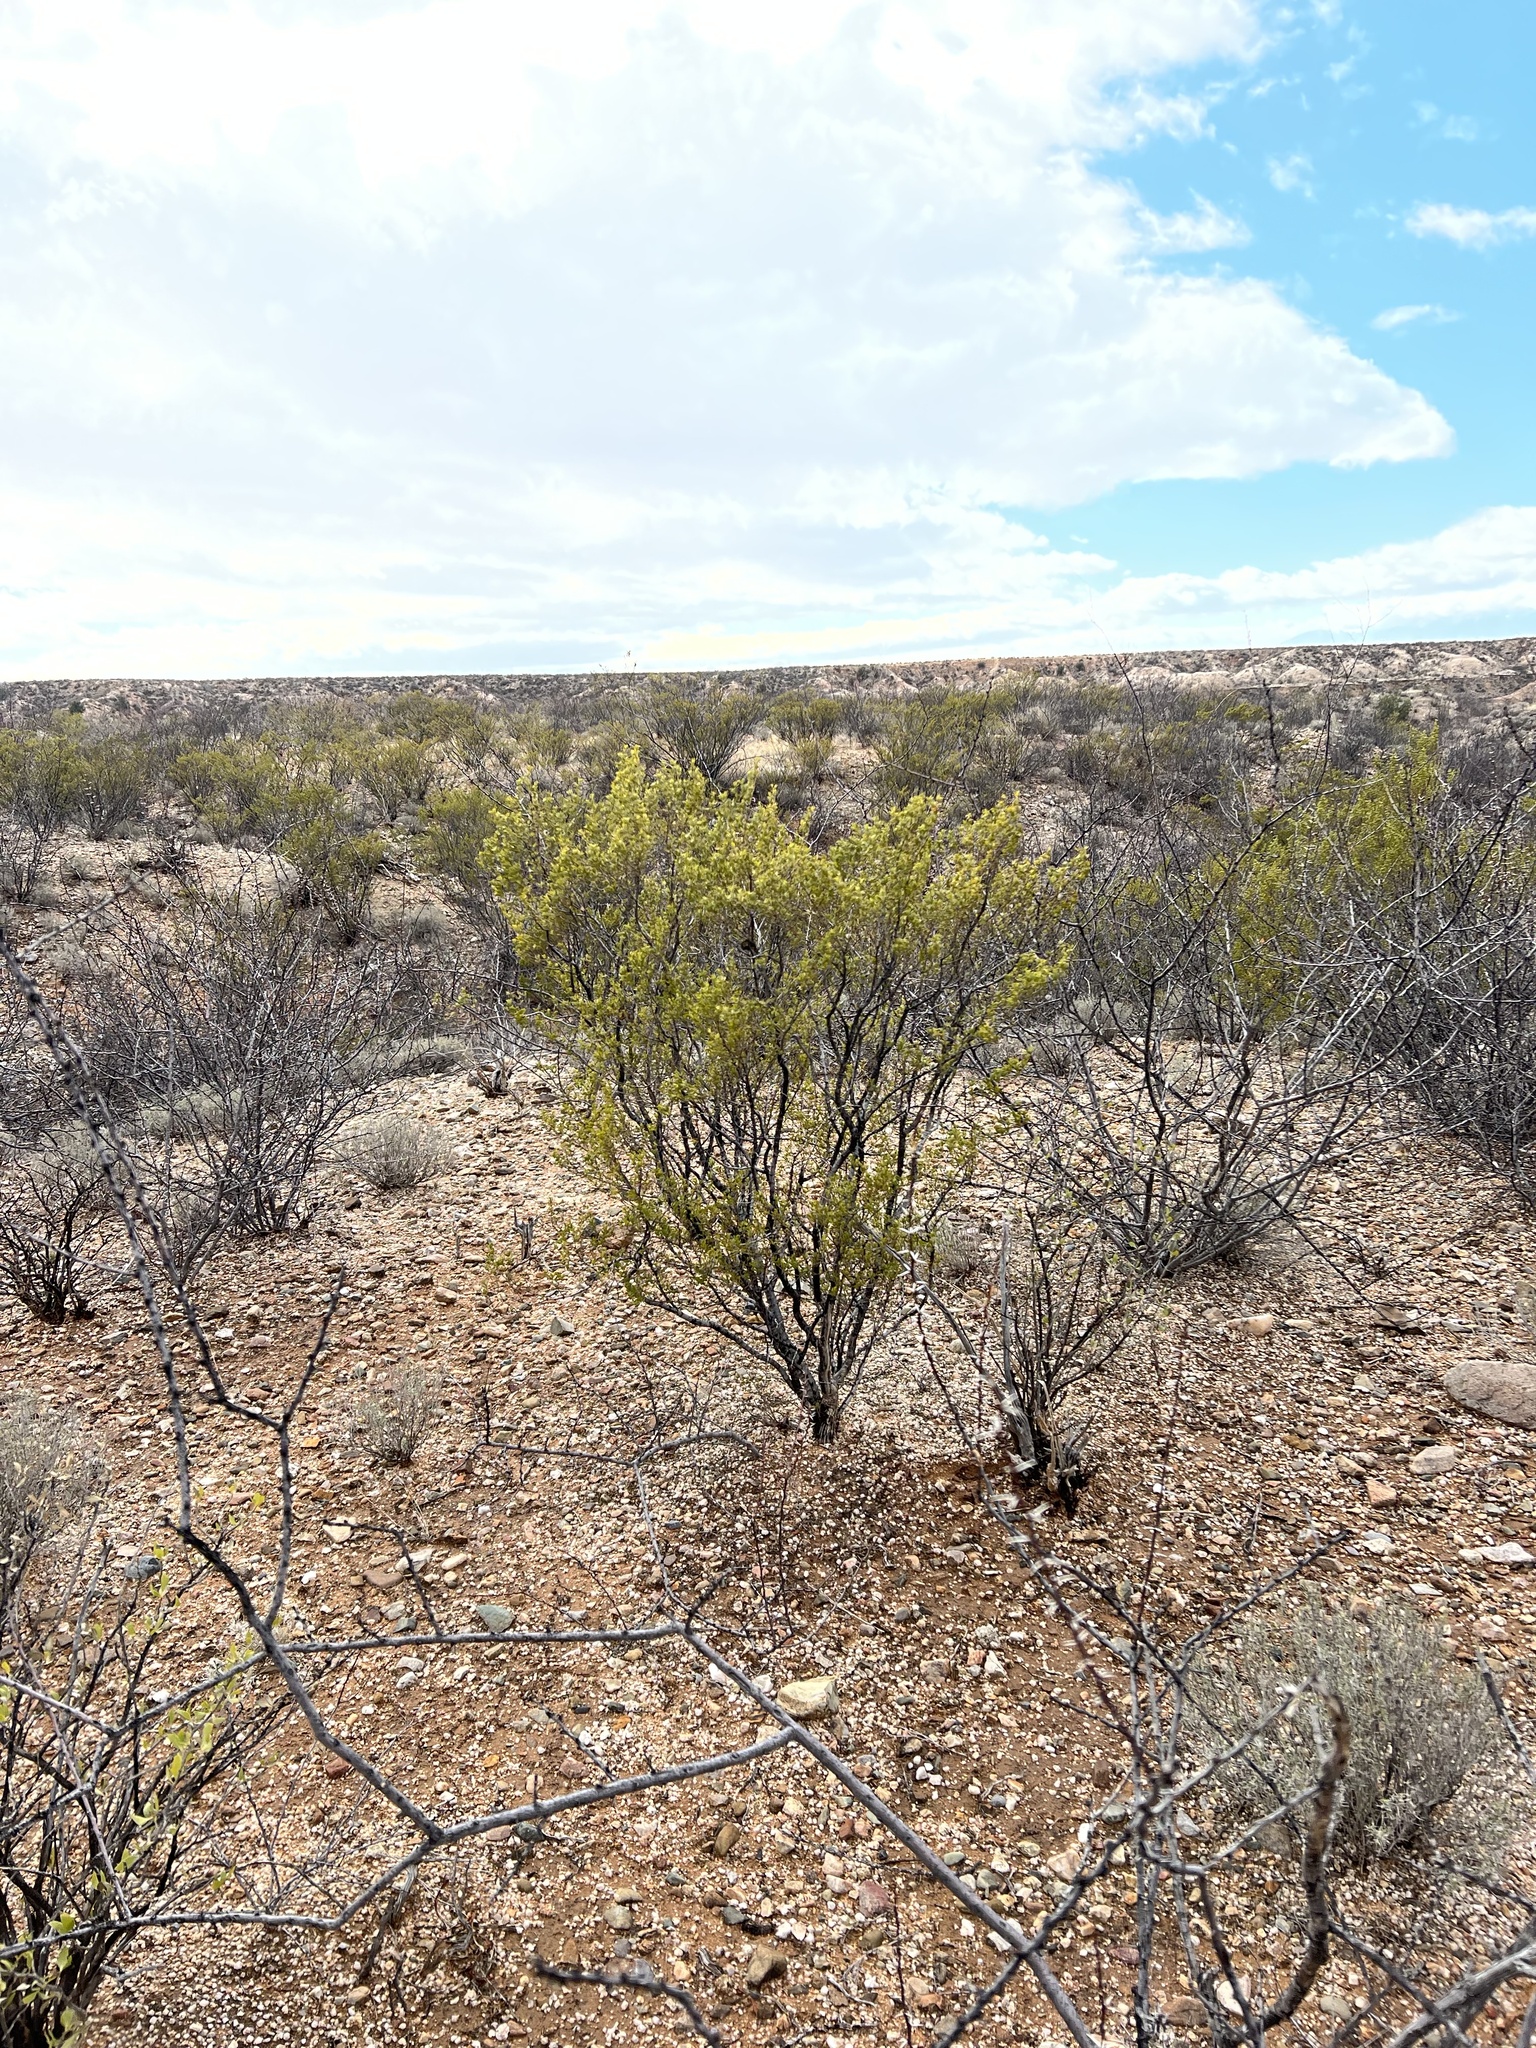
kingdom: Plantae
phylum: Tracheophyta
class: Magnoliopsida
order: Zygophyllales
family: Zygophyllaceae
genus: Larrea
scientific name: Larrea tridentata
